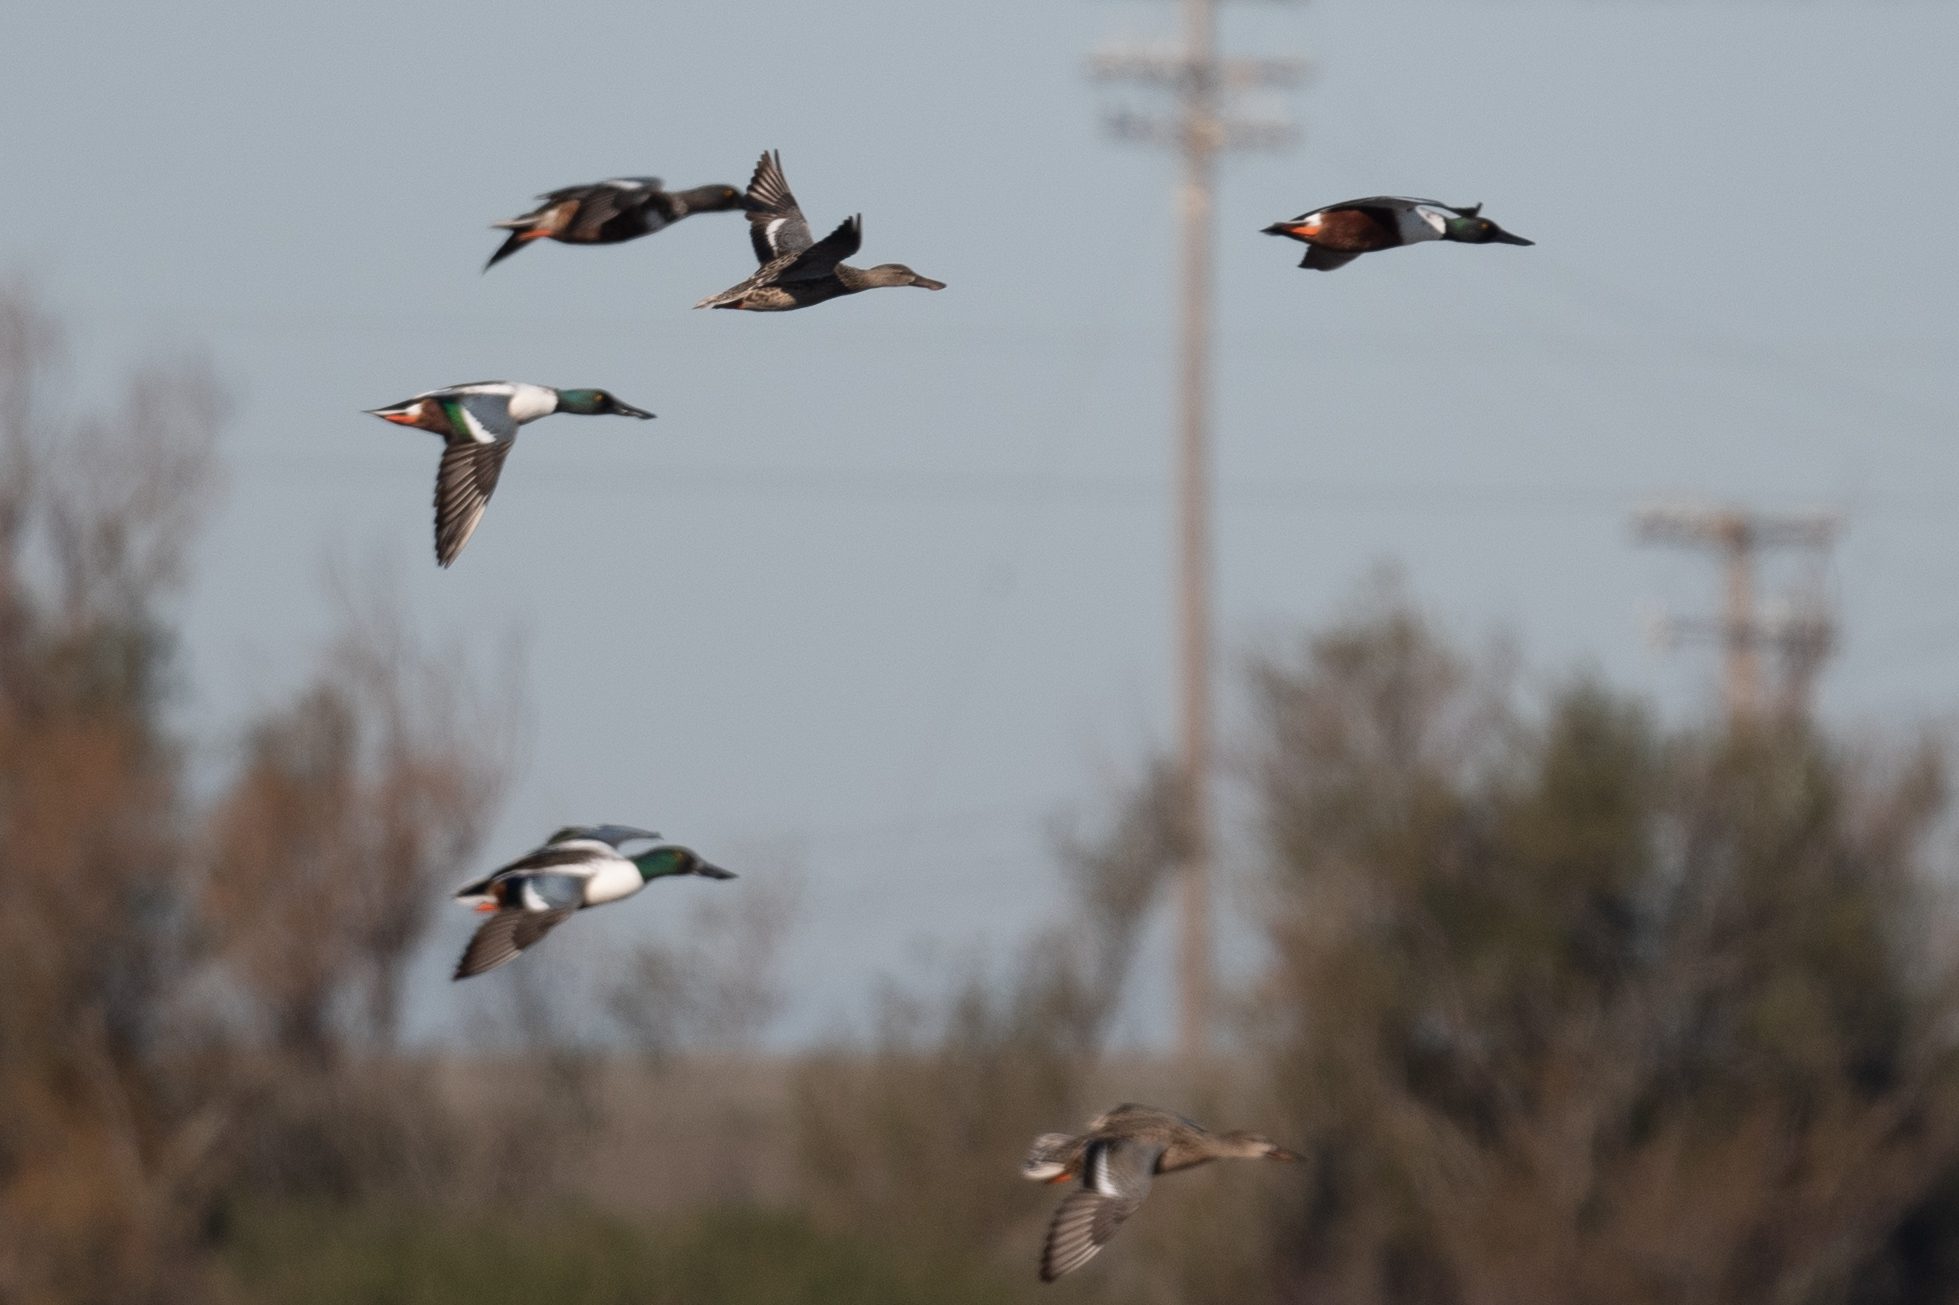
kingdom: Animalia
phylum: Chordata
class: Aves
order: Anseriformes
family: Anatidae
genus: Spatula
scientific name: Spatula clypeata
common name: Northern shoveler
